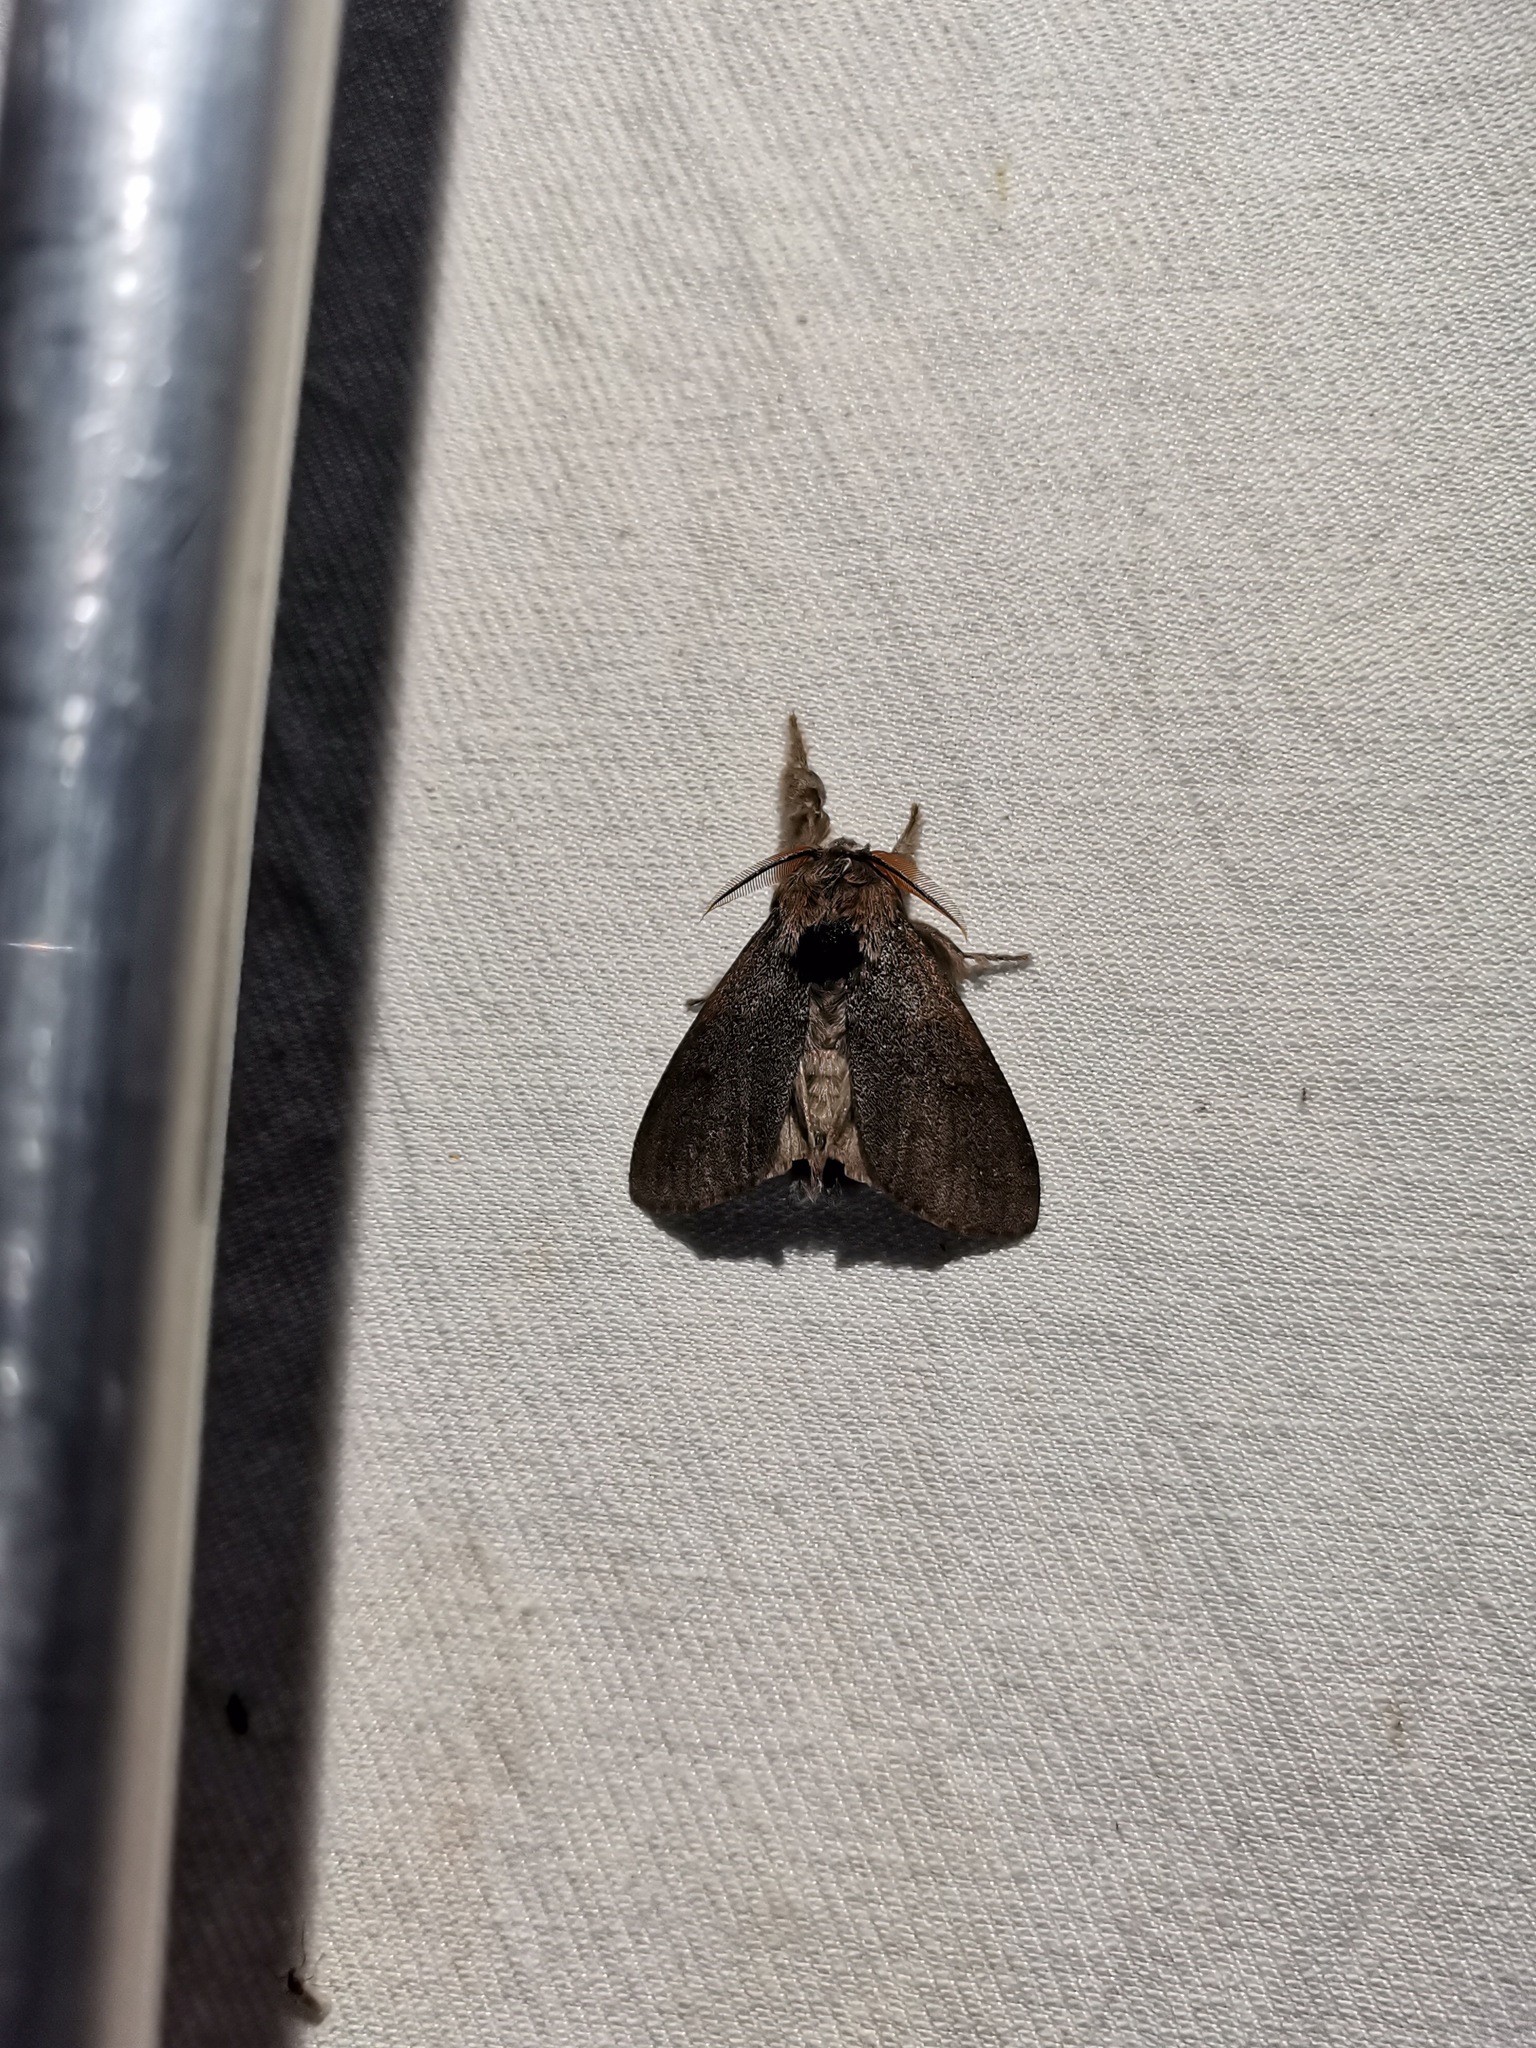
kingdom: Animalia
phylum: Arthropoda
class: Insecta
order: Lepidoptera
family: Erebidae
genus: Calliteara
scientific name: Calliteara pudibunda
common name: Pale tussock
